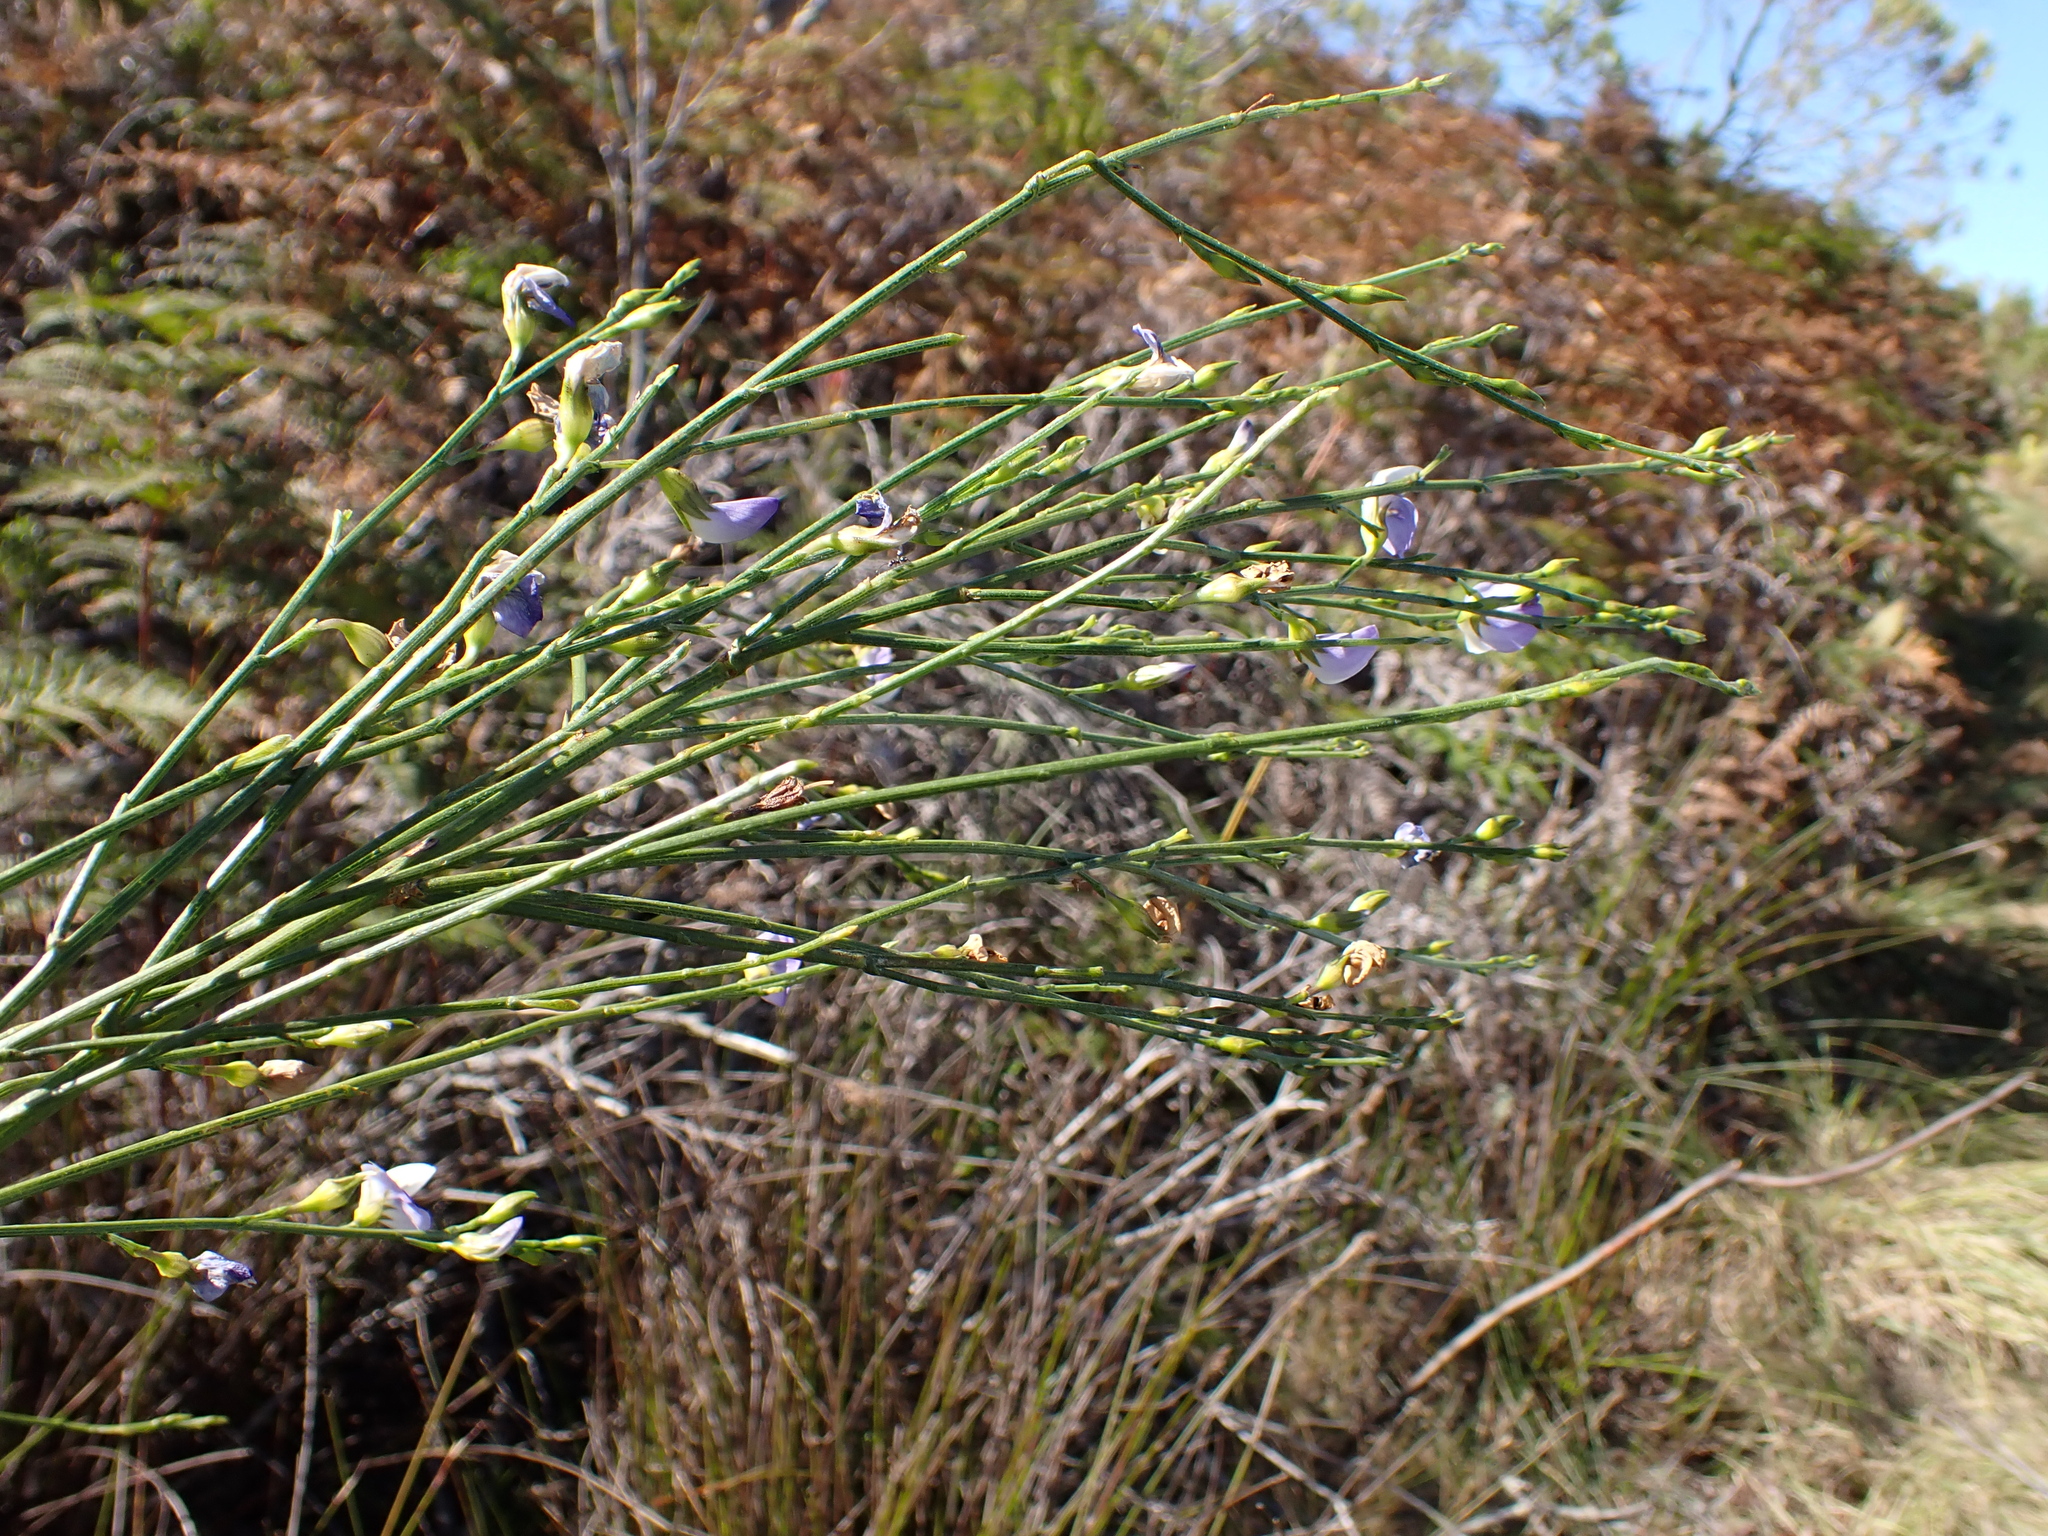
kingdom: Plantae
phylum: Tracheophyta
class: Magnoliopsida
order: Fabales
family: Fabaceae
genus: Psoralea
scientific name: Psoralea usitata
